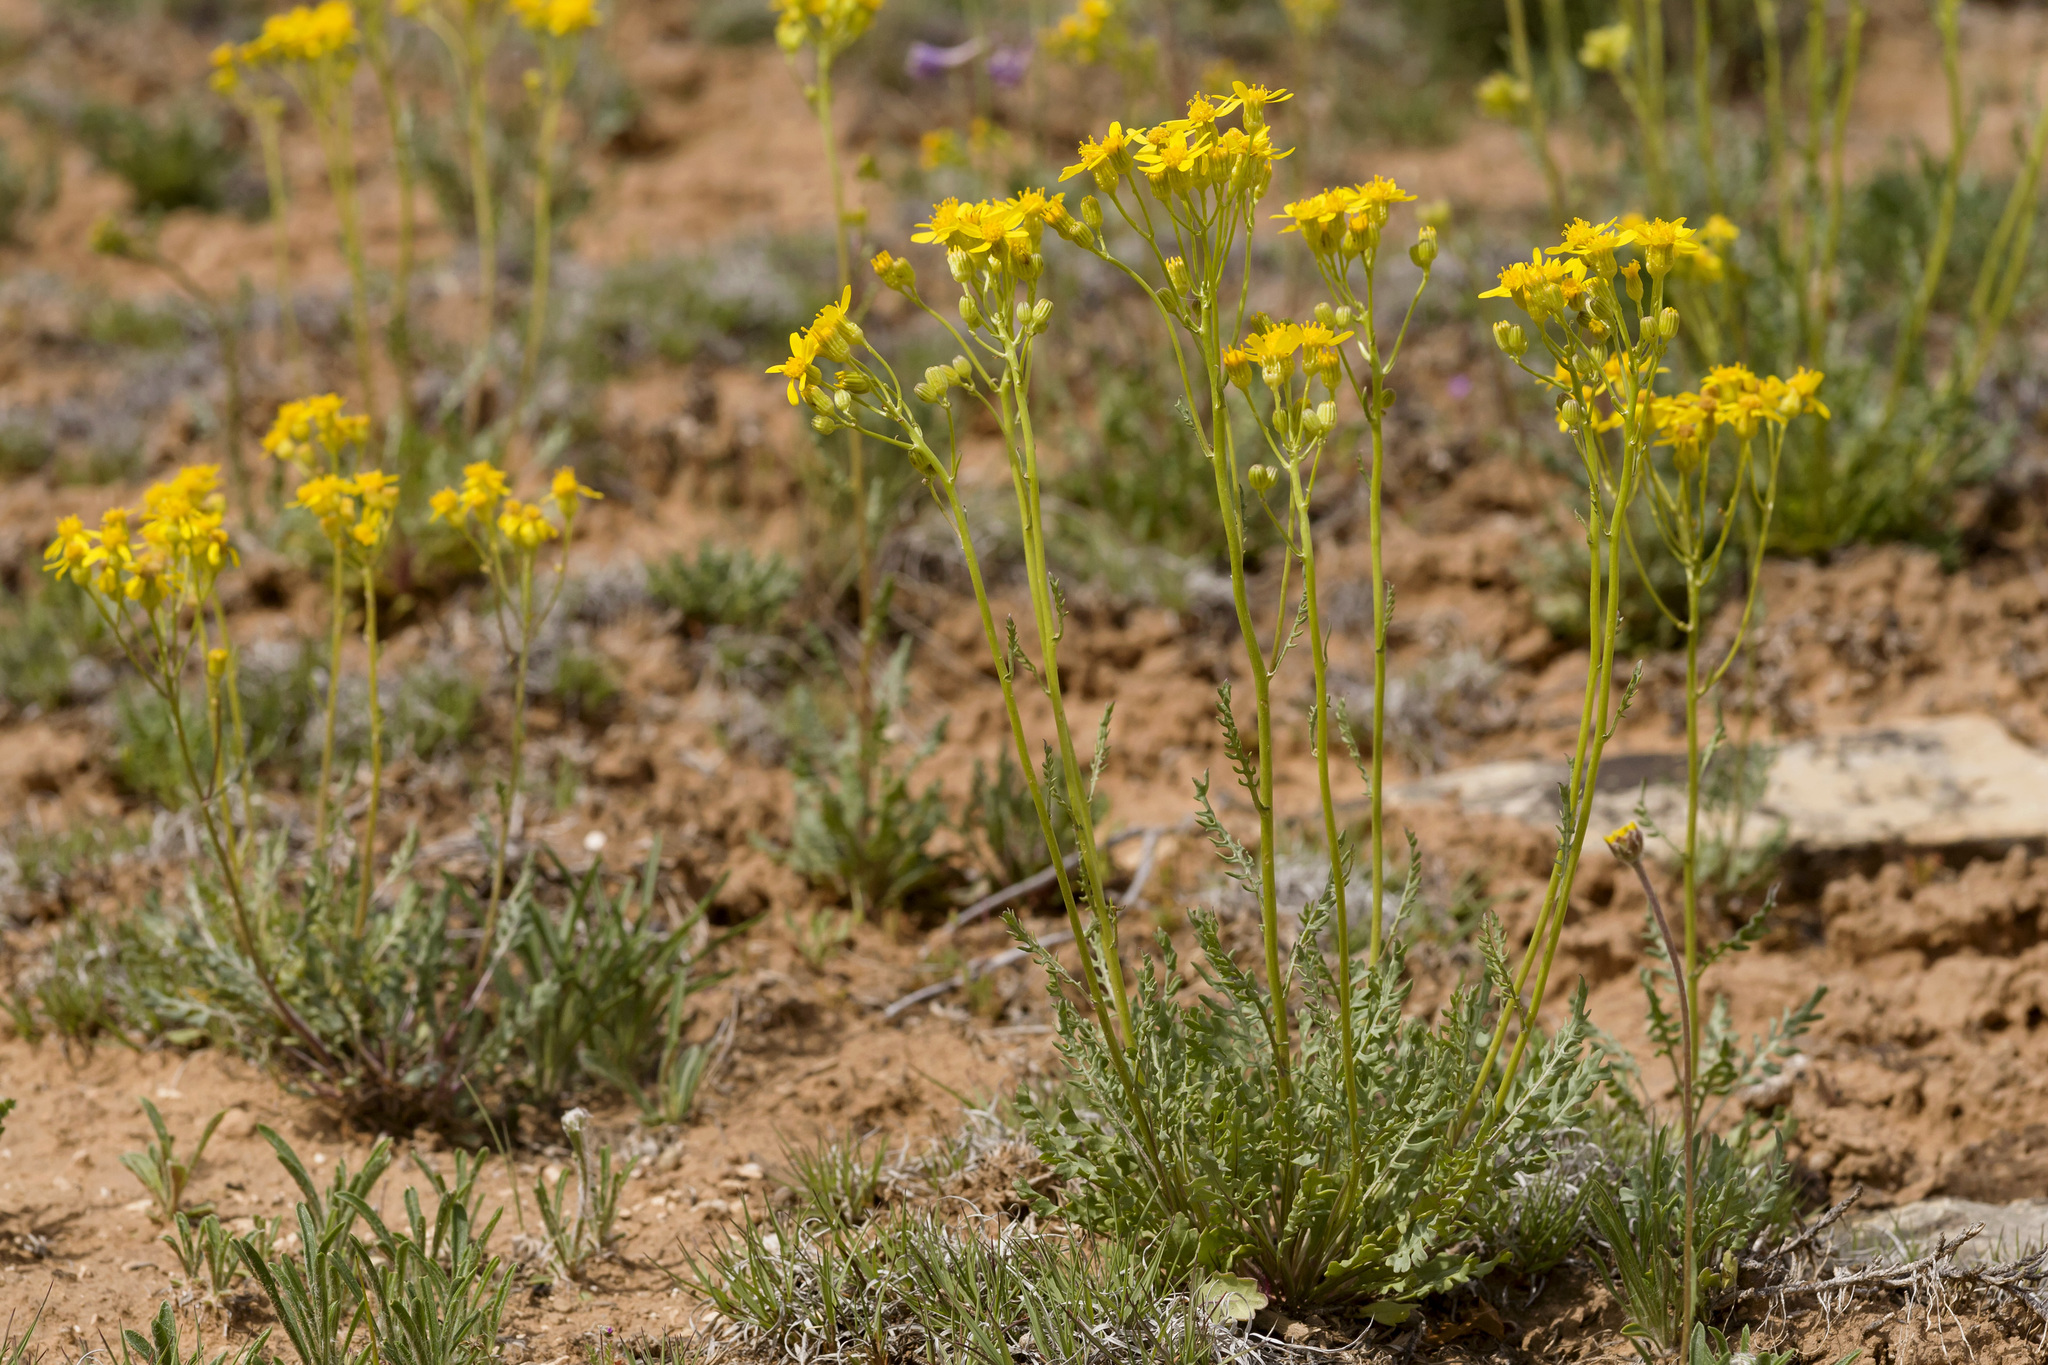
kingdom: Plantae
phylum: Tracheophyta
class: Magnoliopsida
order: Asterales
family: Asteraceae
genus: Packera
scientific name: Packera multilobata
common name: Lobe-leaf groundsel
